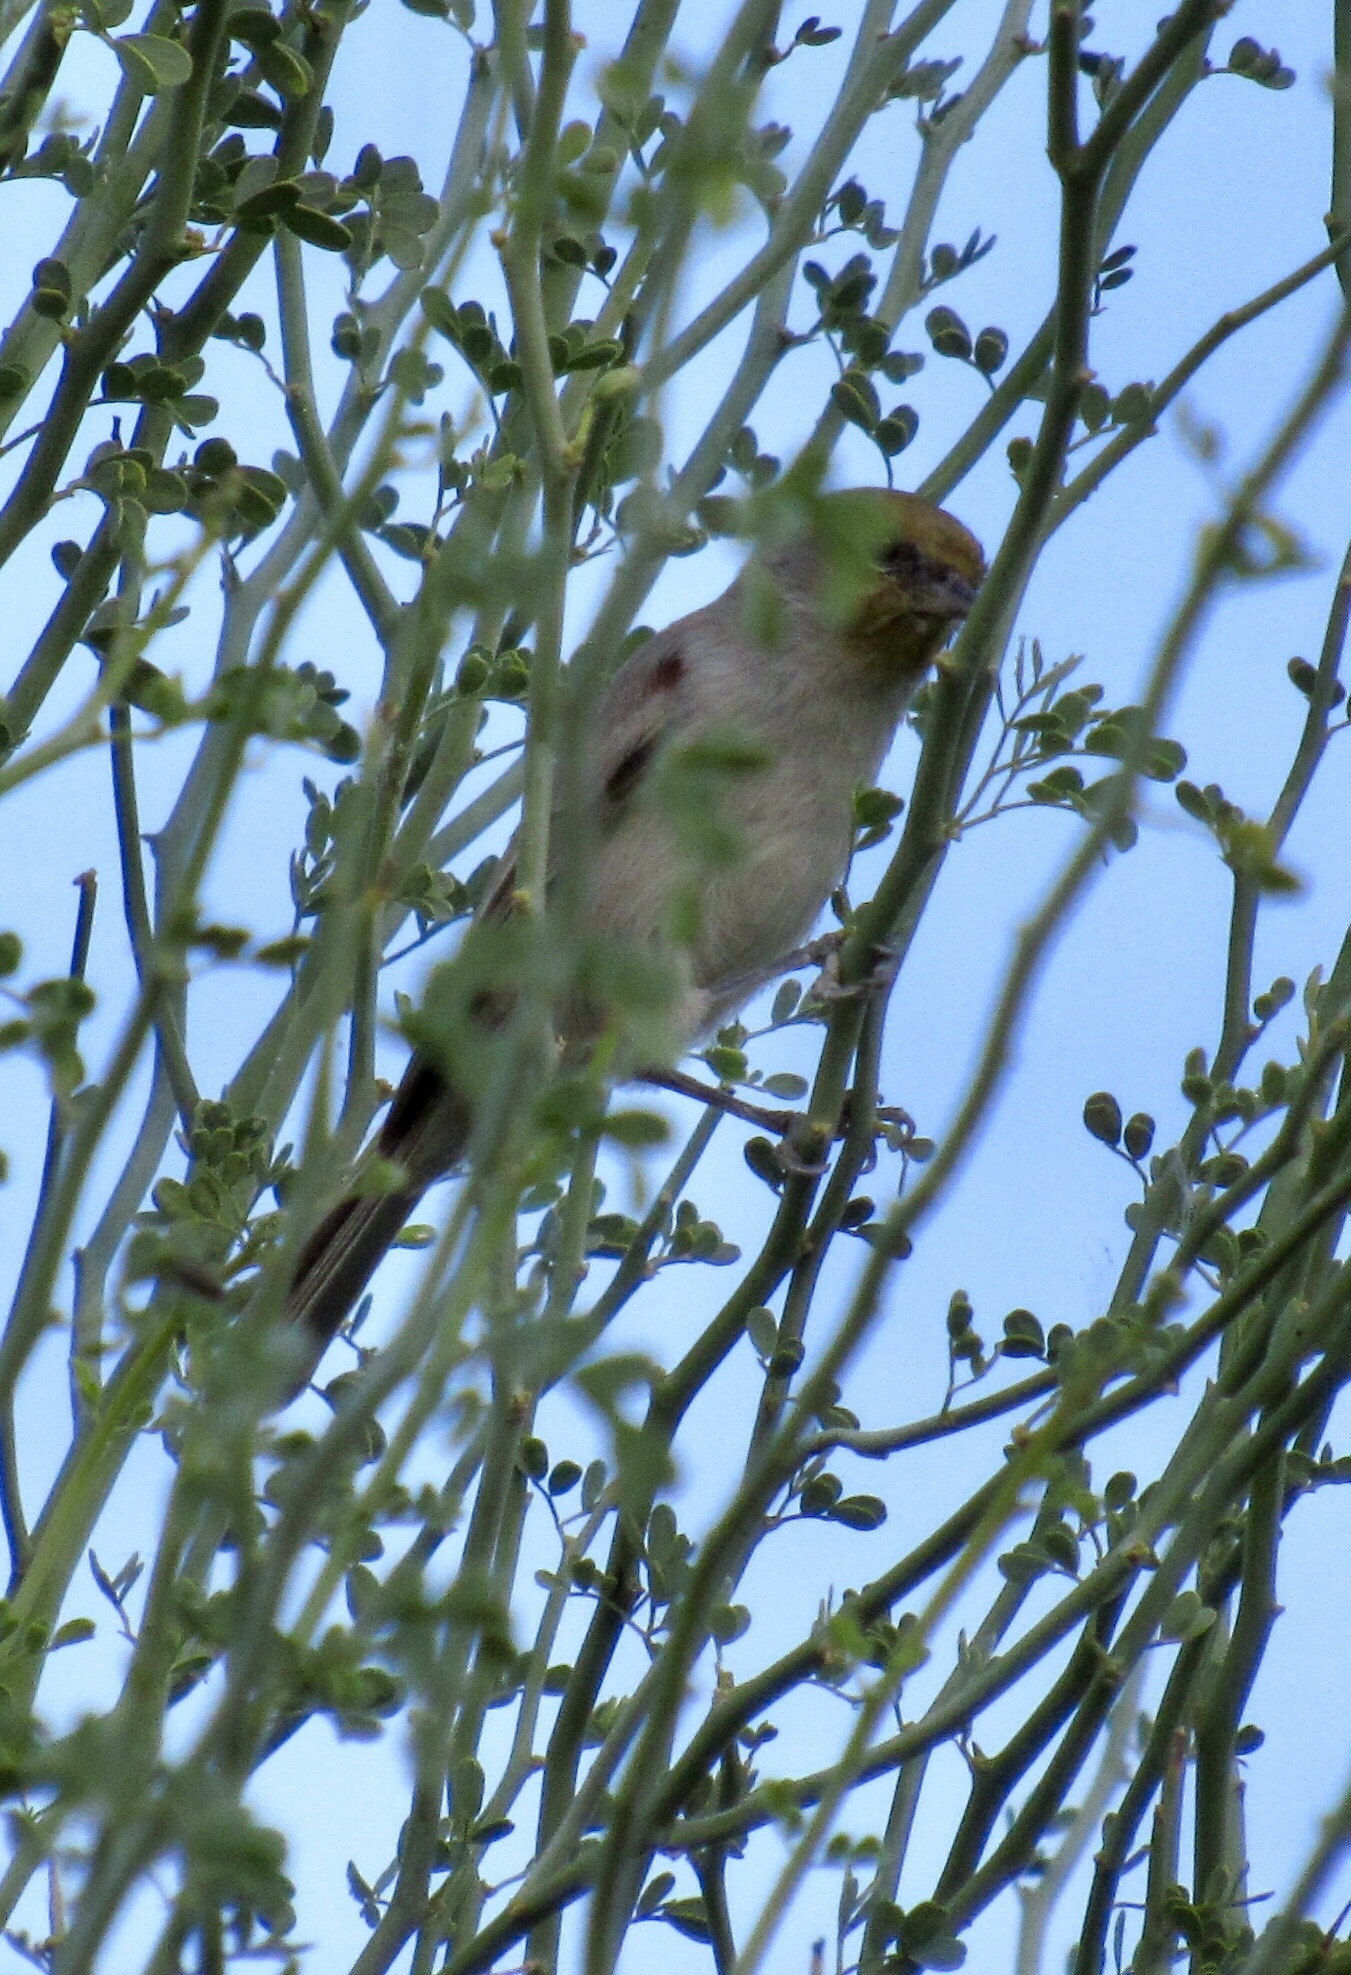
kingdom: Animalia
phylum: Chordata
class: Aves
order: Passeriformes
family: Remizidae
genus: Auriparus
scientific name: Auriparus flaviceps
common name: Verdin
